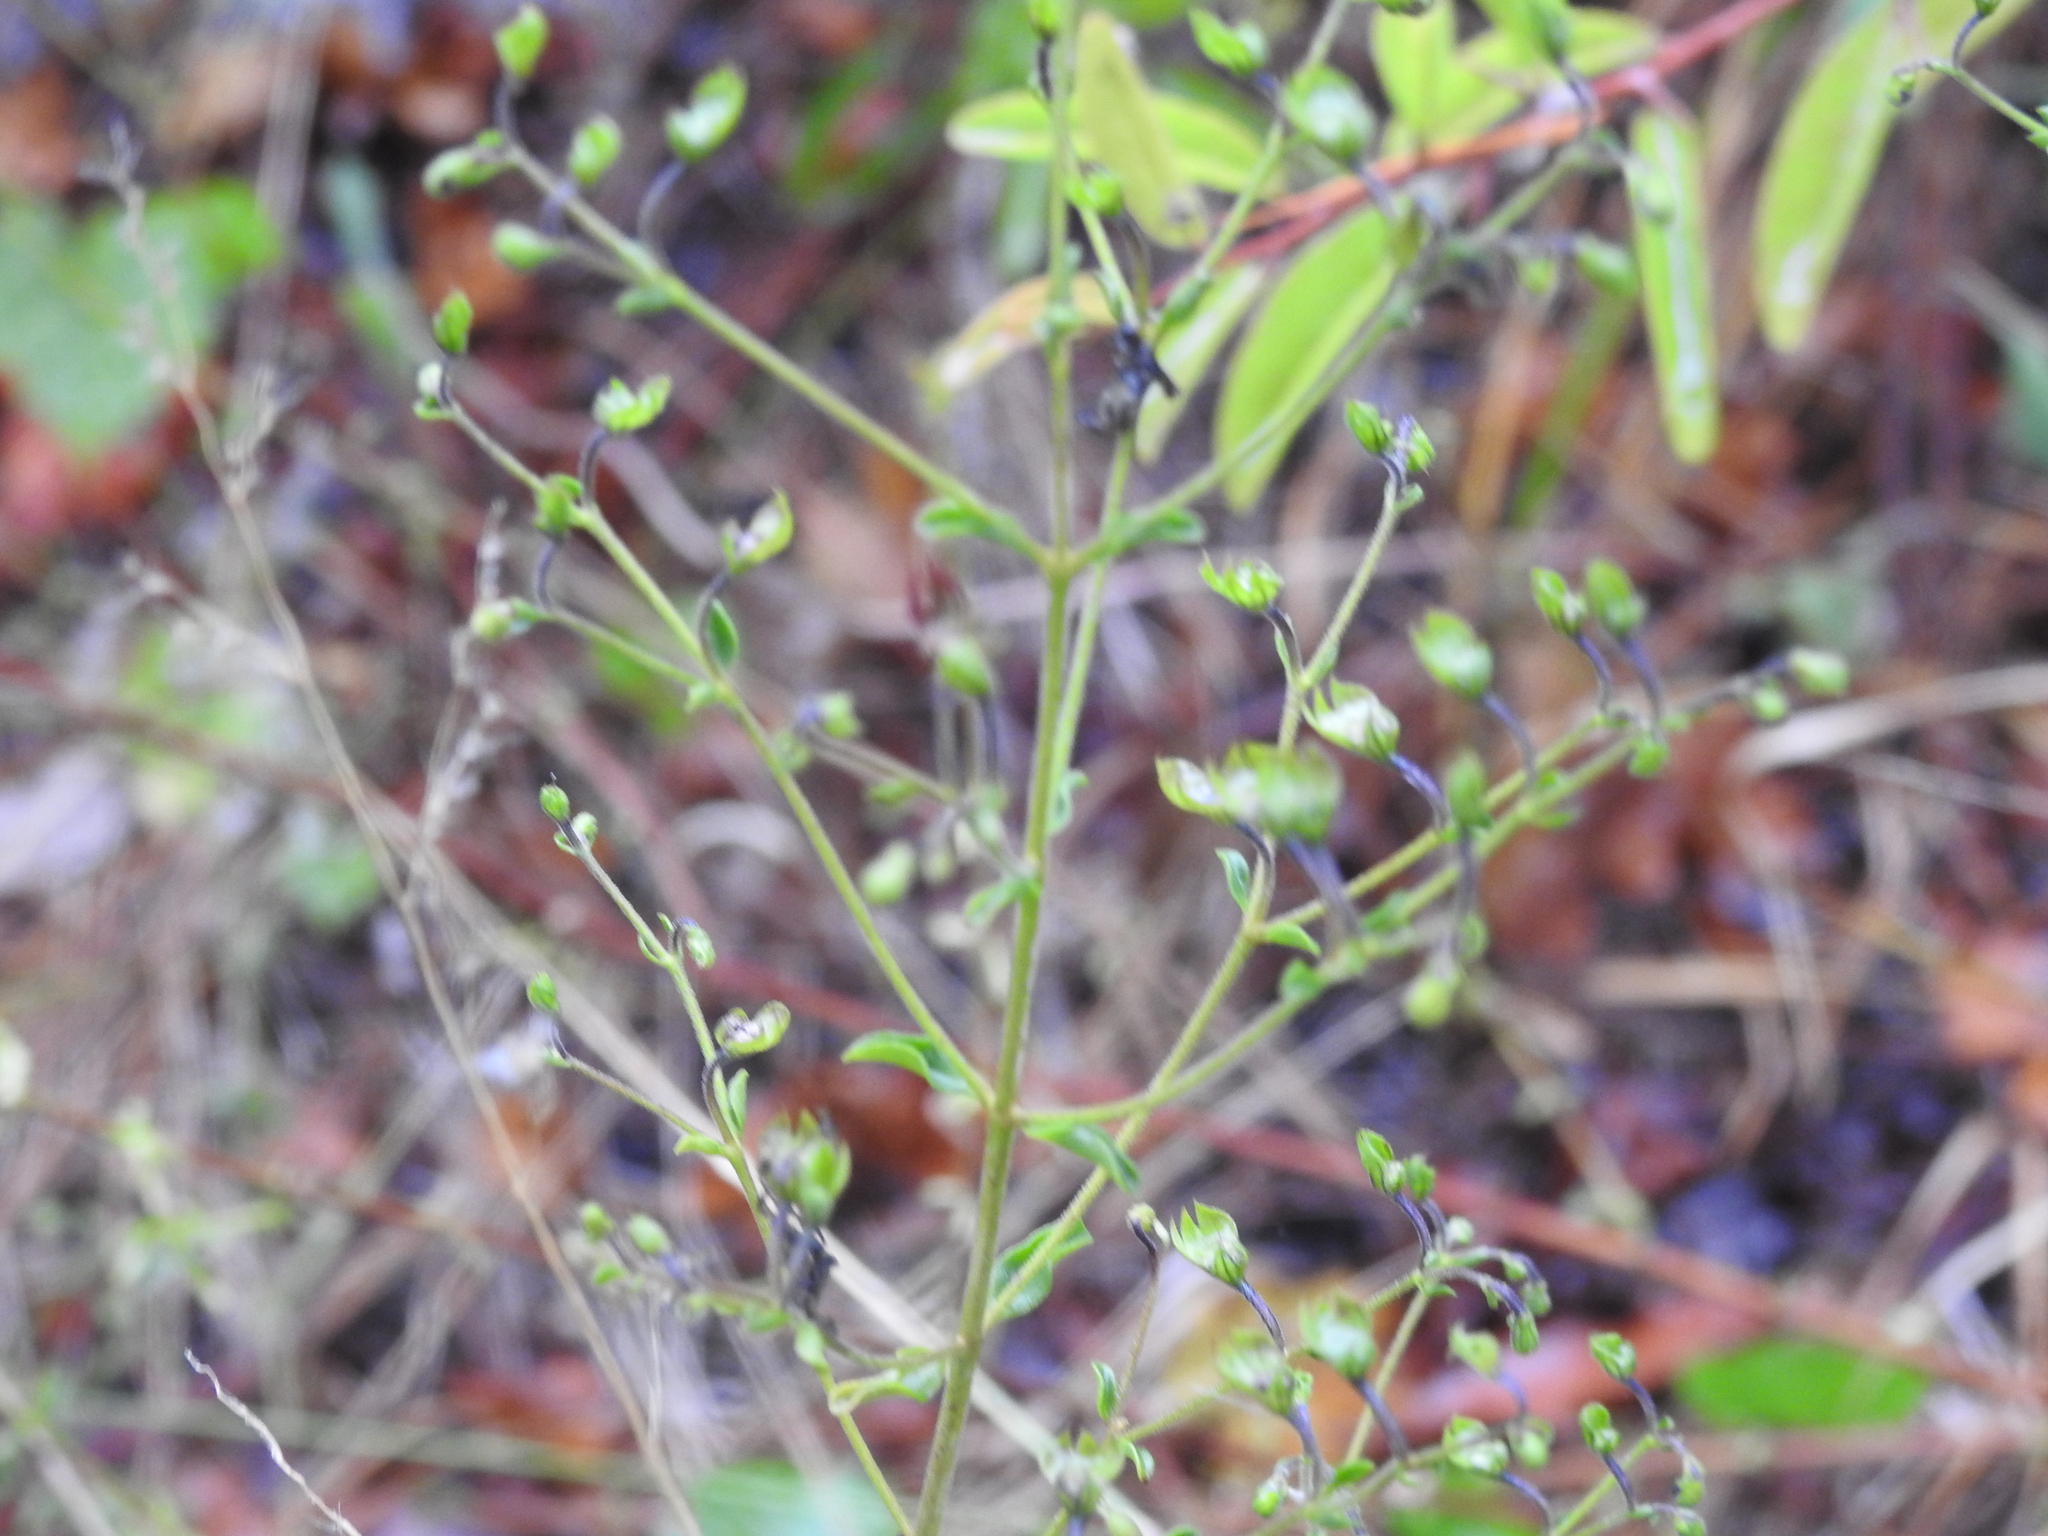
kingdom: Plantae
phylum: Tracheophyta
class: Magnoliopsida
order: Lamiales
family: Lamiaceae
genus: Trichostema
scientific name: Trichostema suffrutescens
